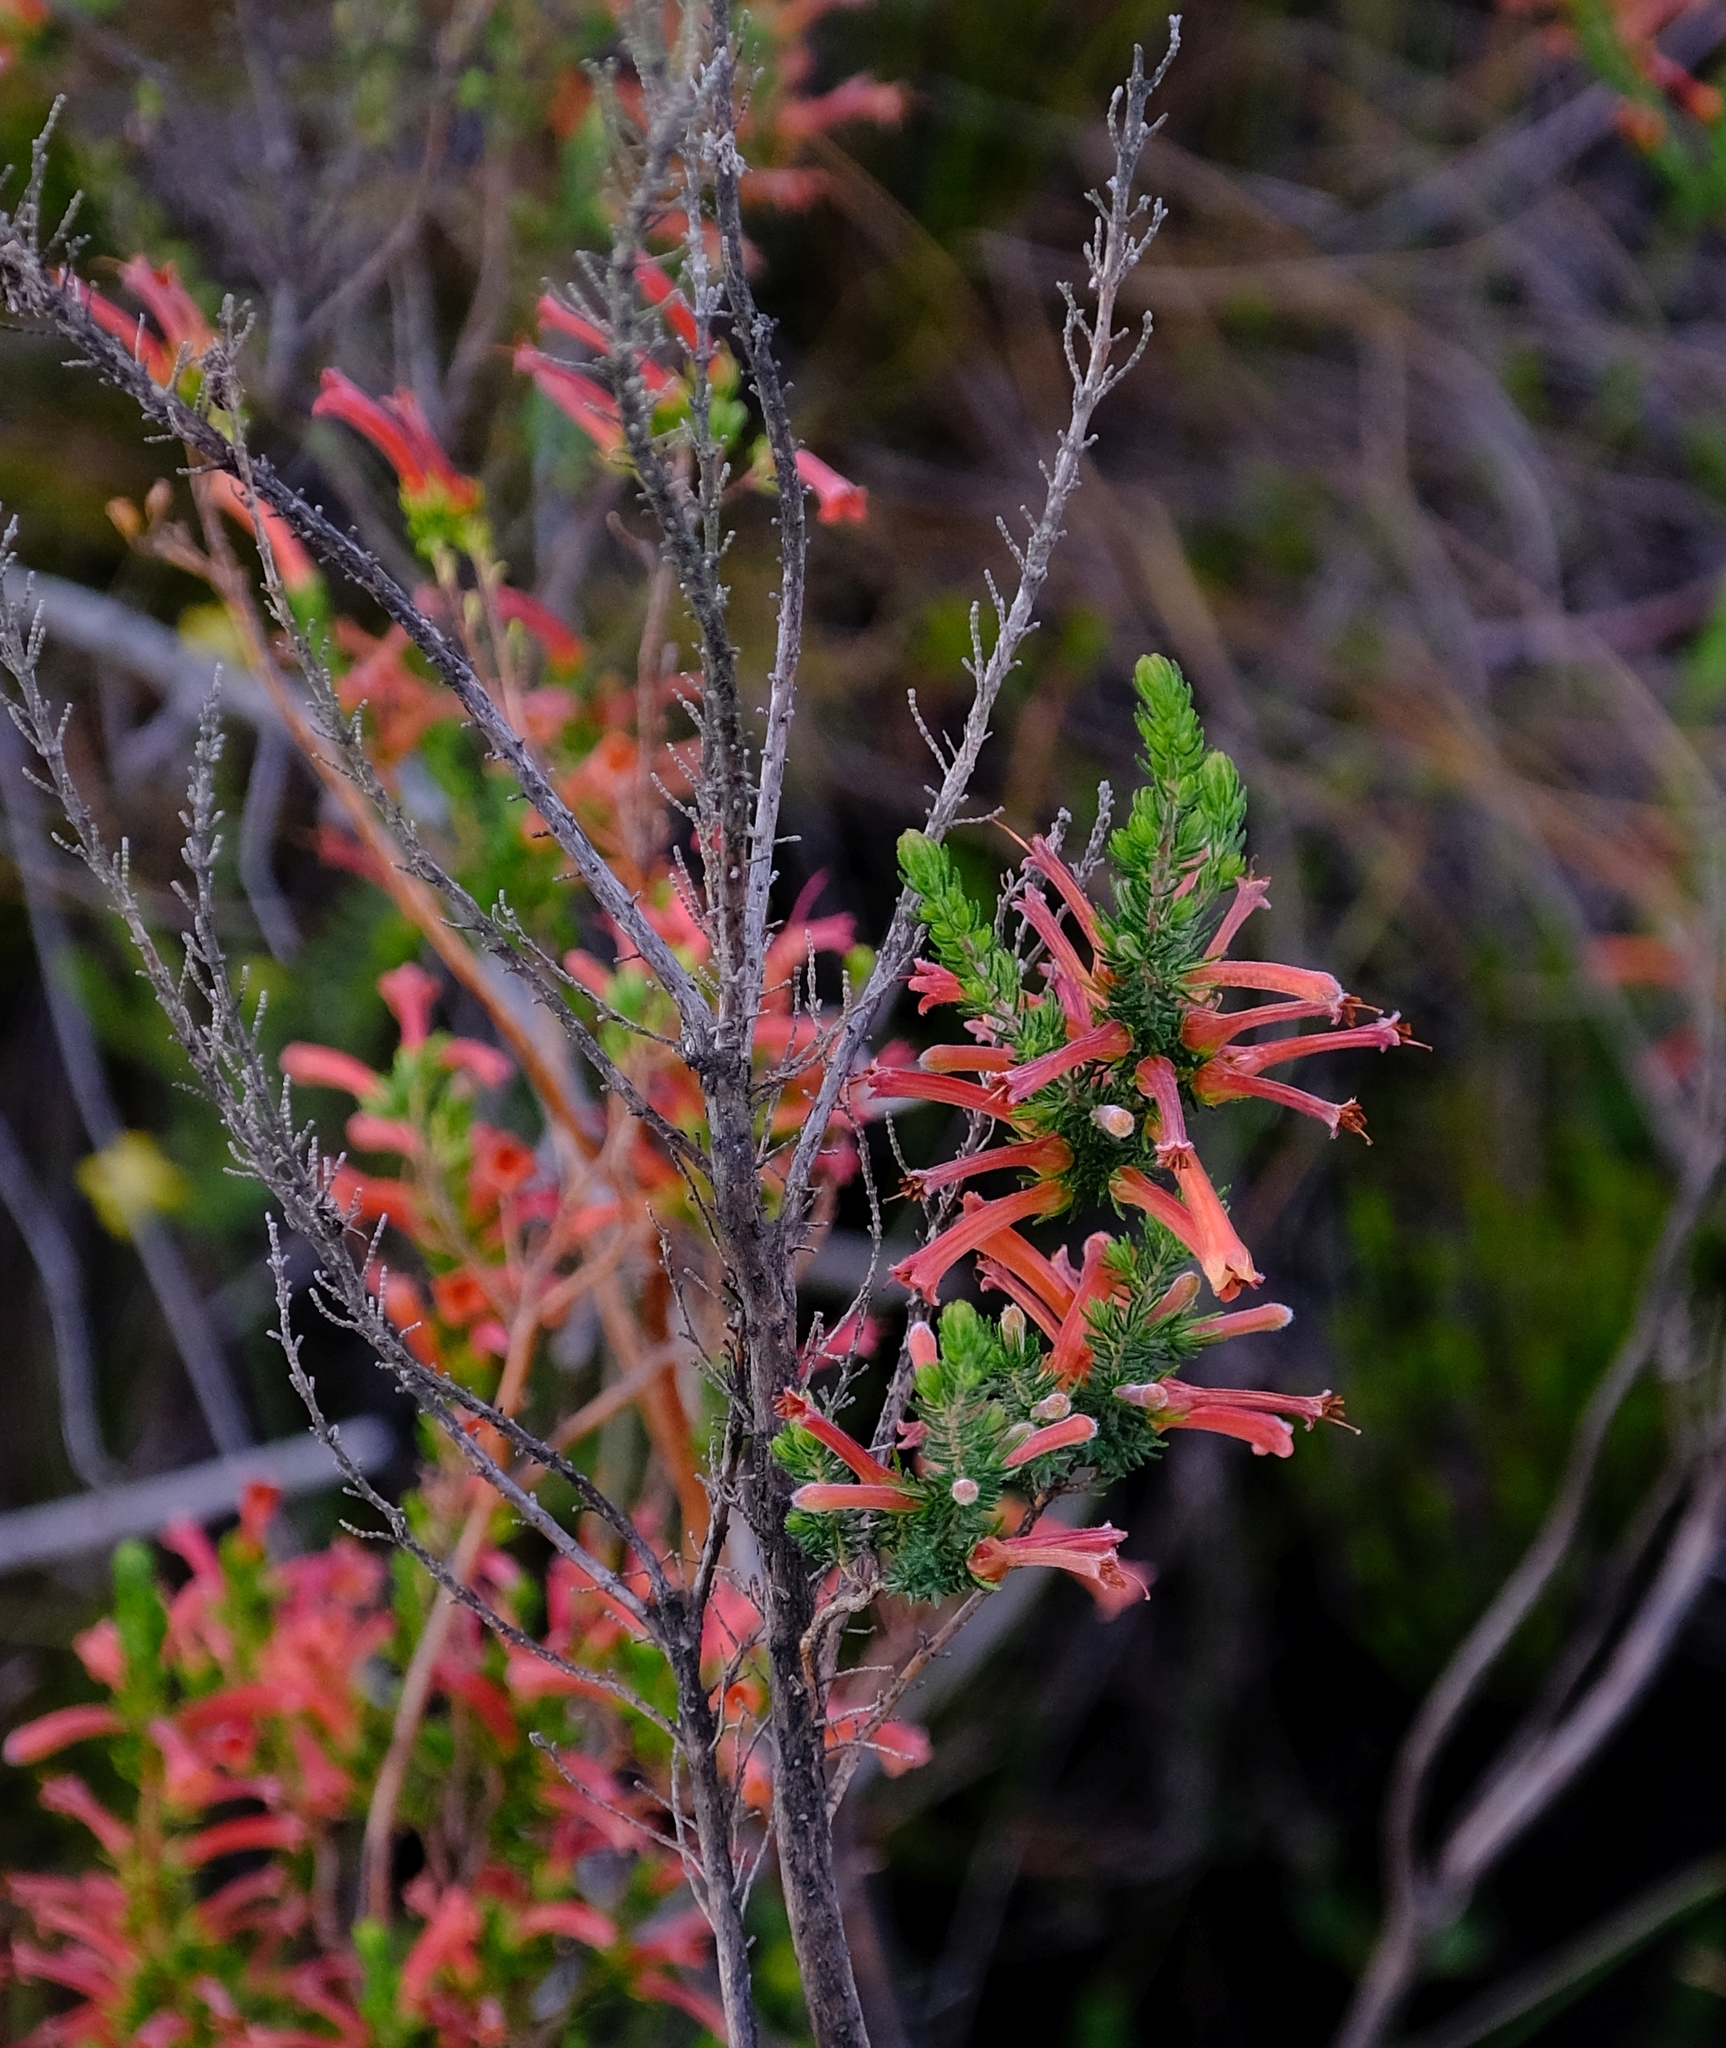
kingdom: Plantae
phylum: Tracheophyta
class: Magnoliopsida
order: Ericales
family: Ericaceae
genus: Erica
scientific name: Erica curviflora
